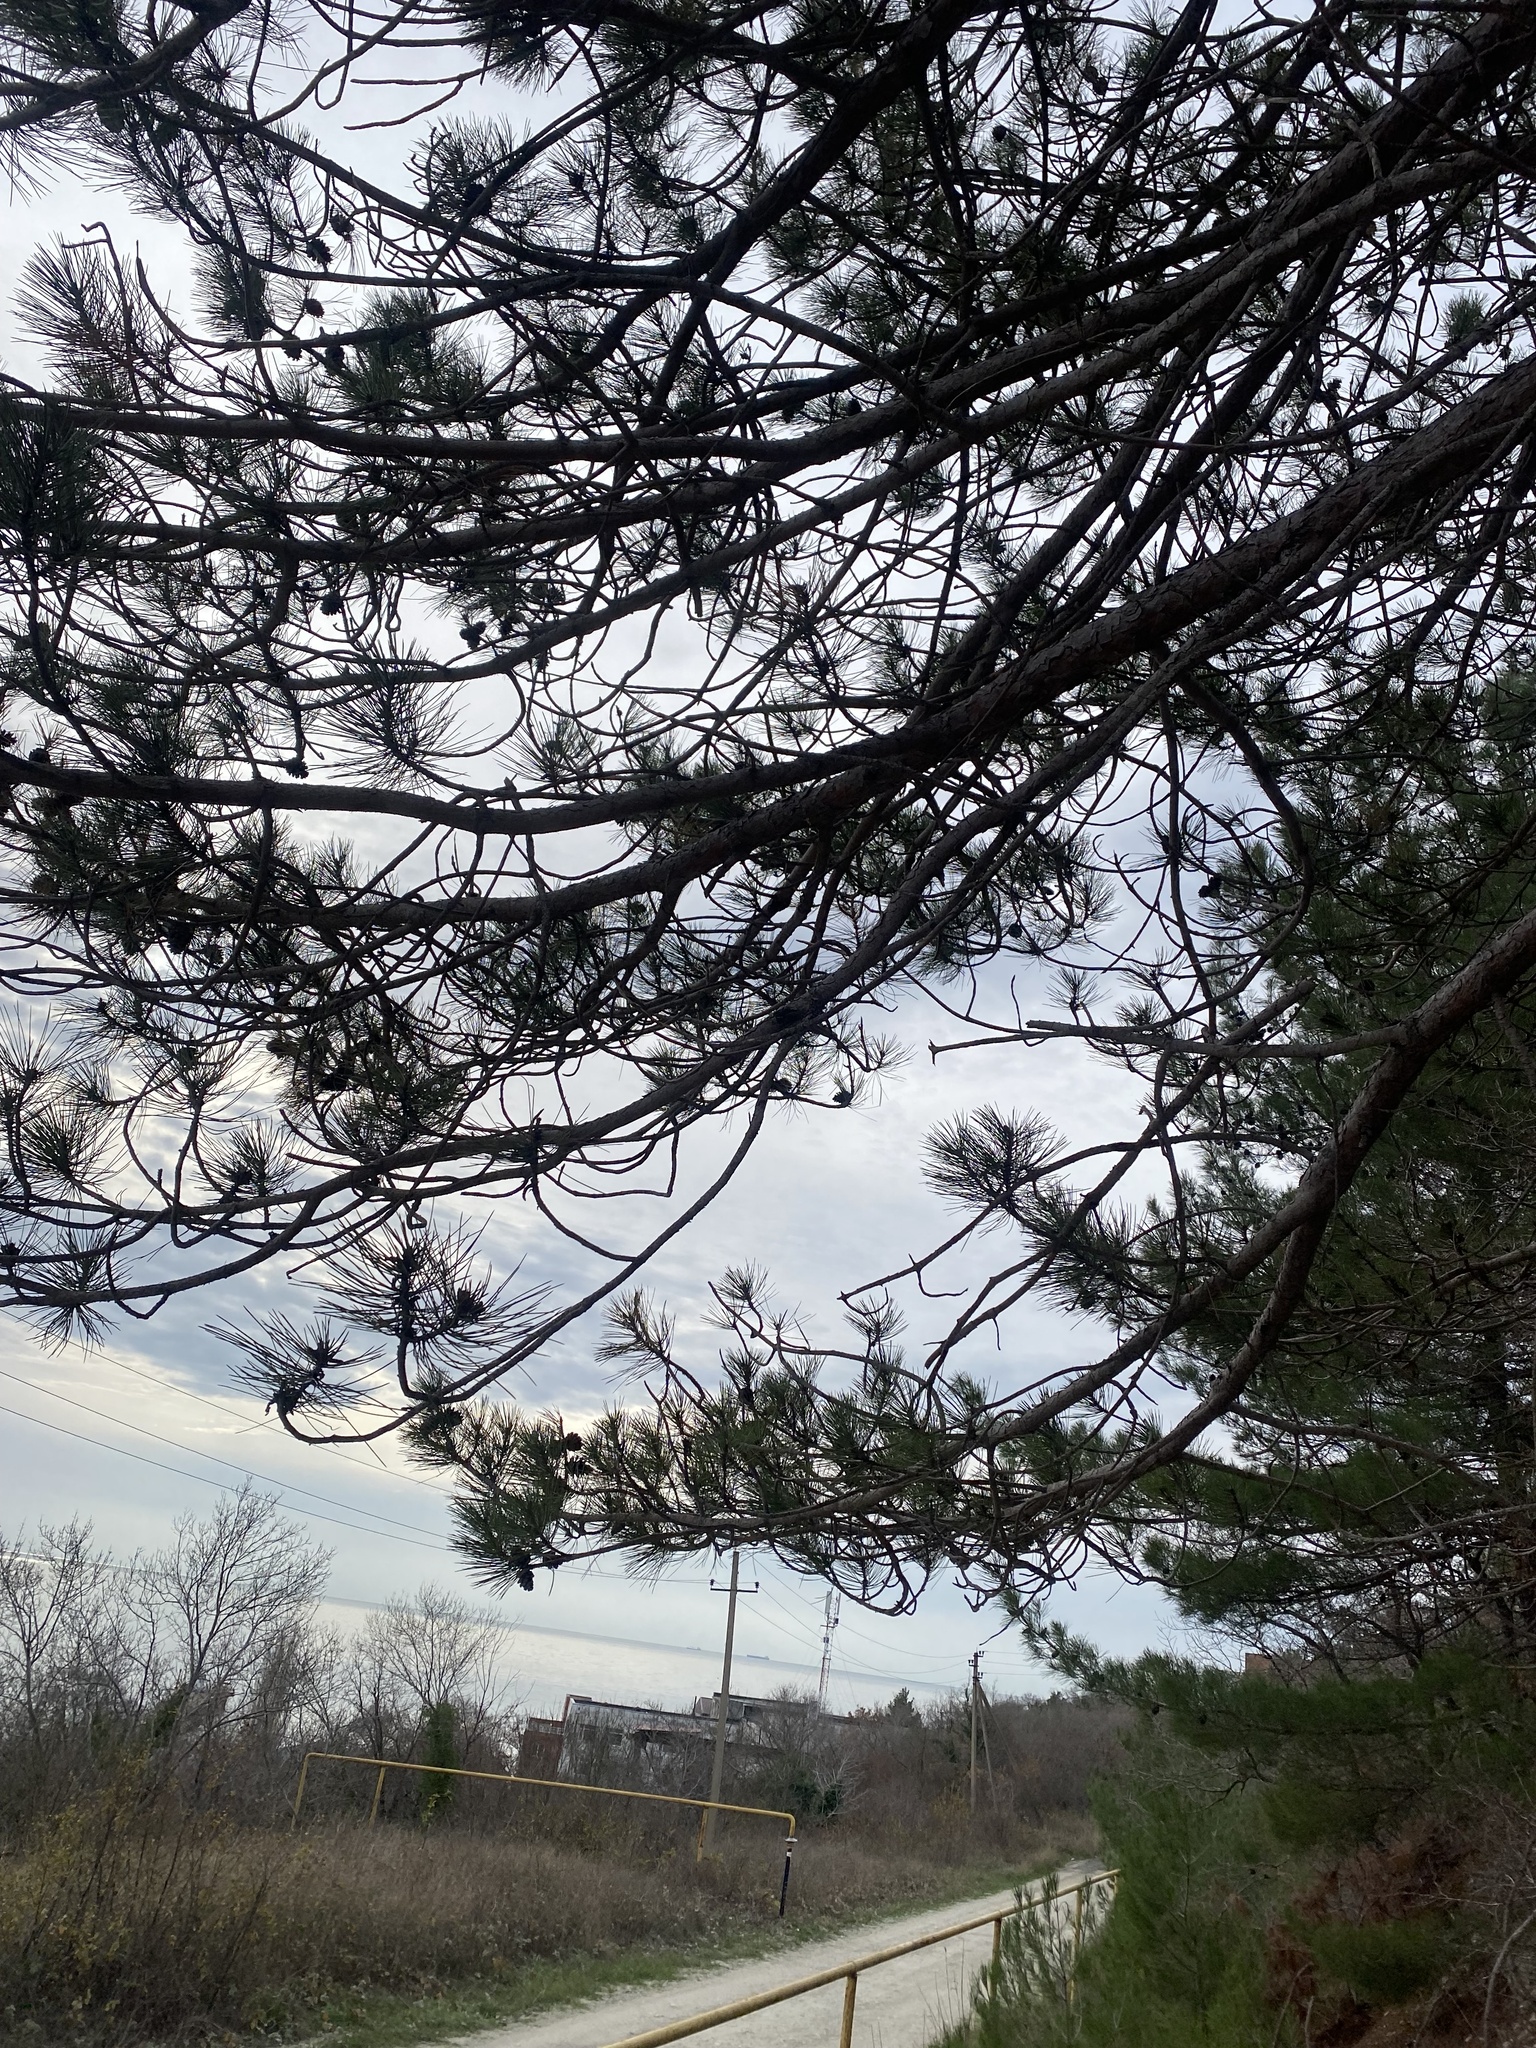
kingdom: Plantae
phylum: Tracheophyta
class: Pinopsida
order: Pinales
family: Pinaceae
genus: Pinus
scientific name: Pinus brutia
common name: Turkish pine
